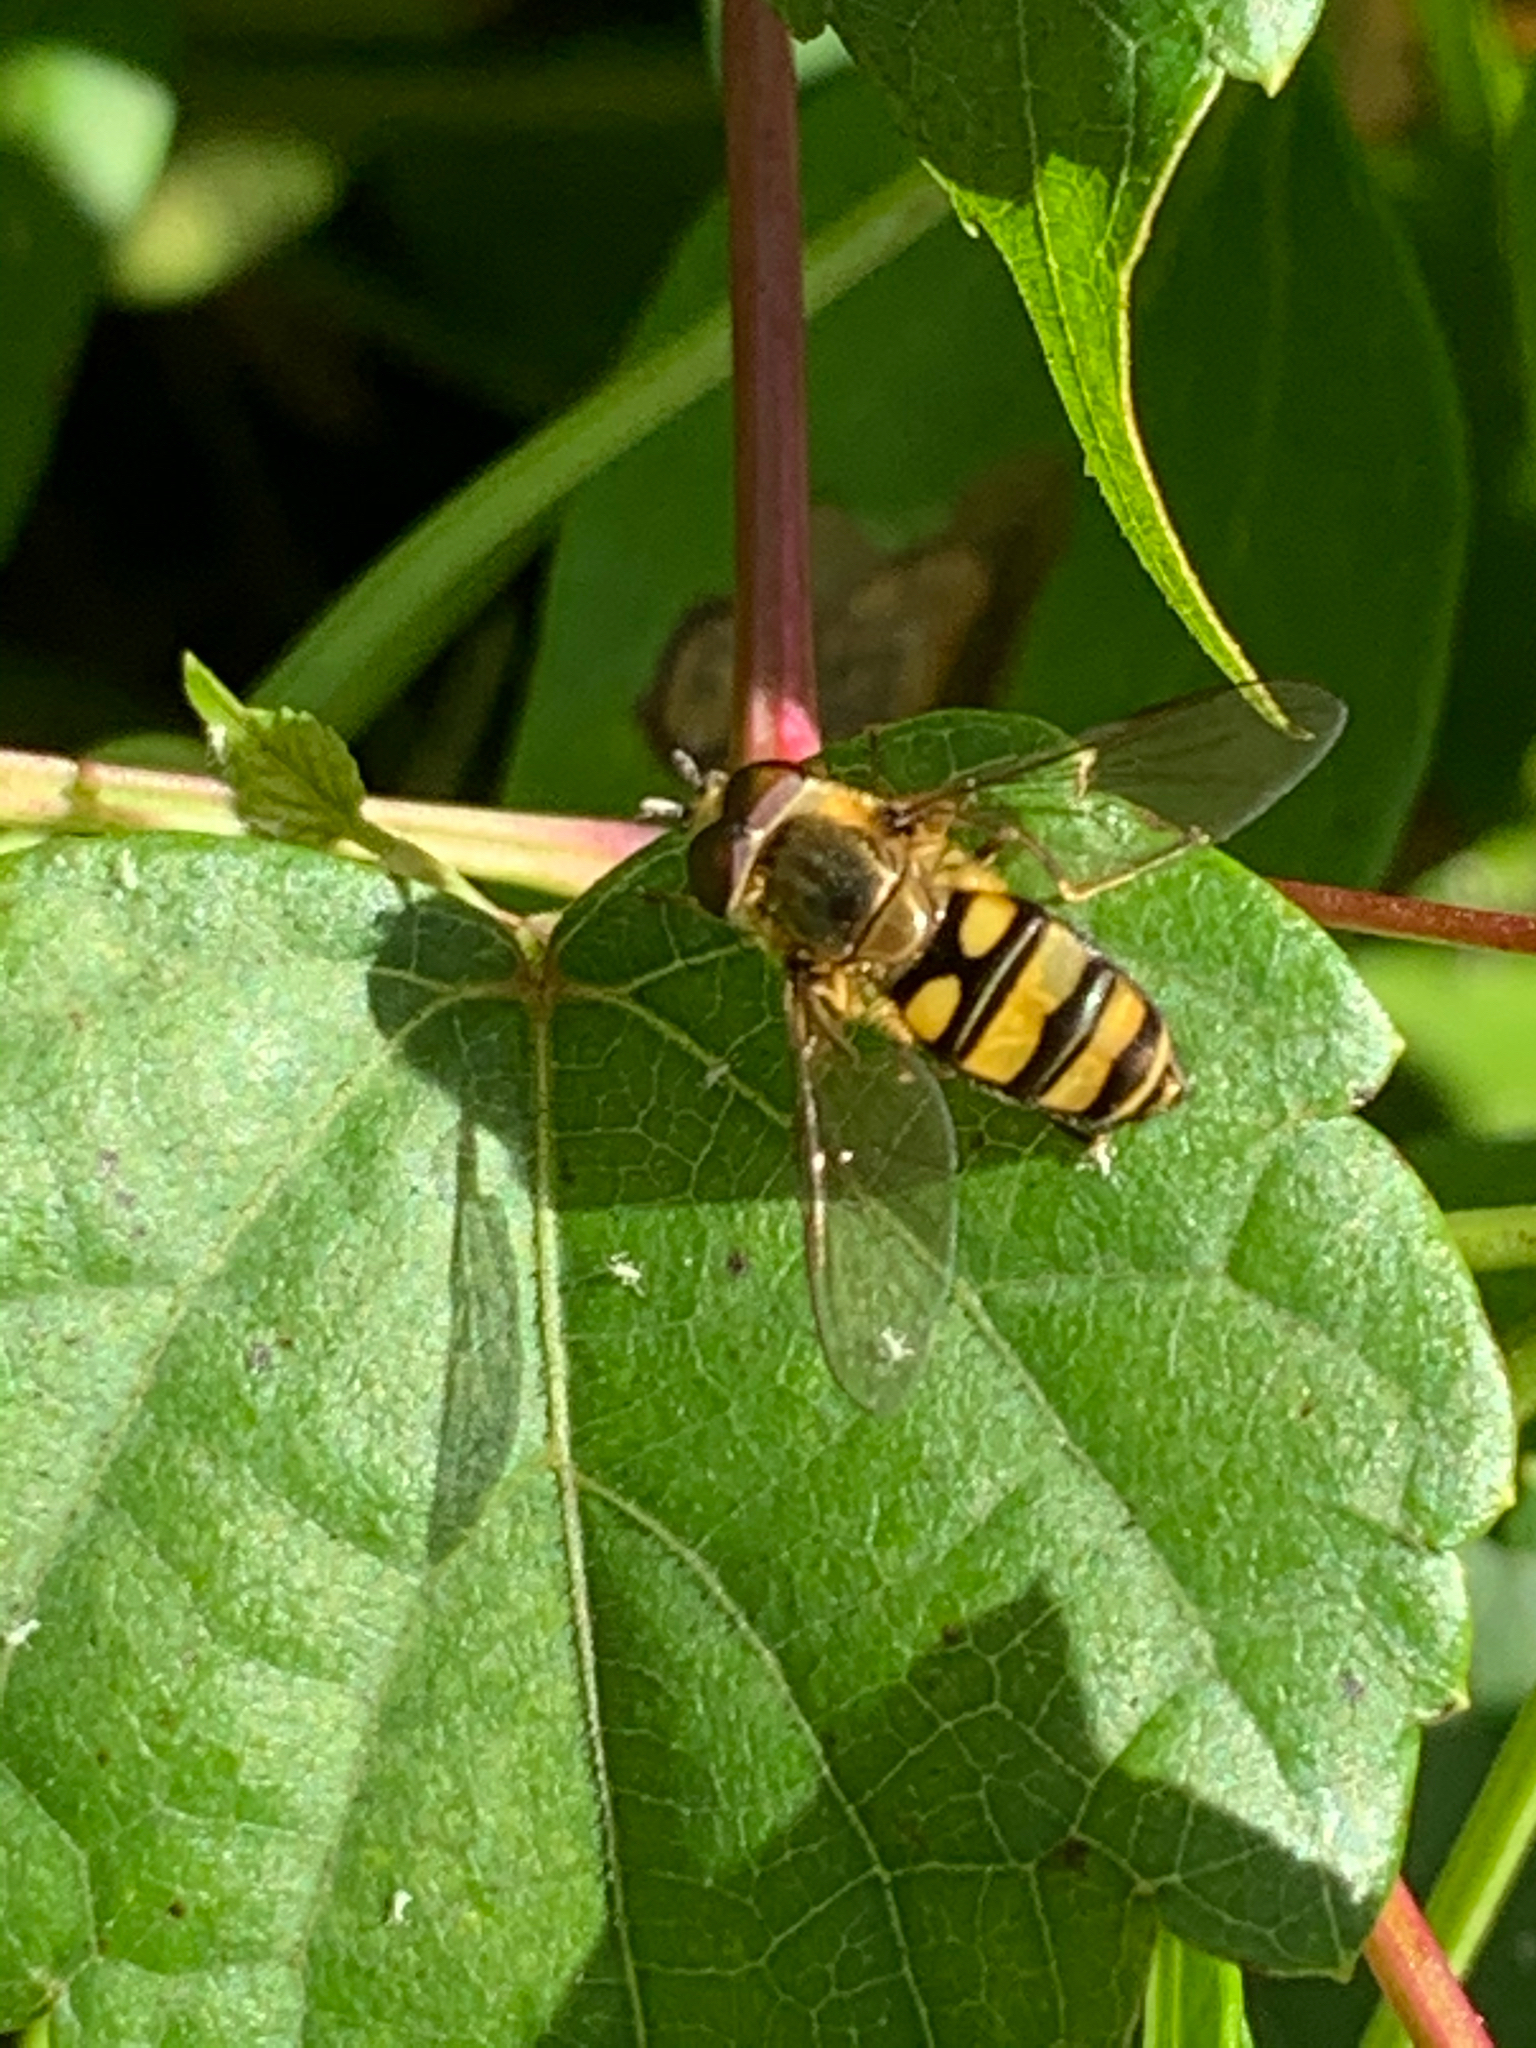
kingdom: Animalia
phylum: Arthropoda
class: Insecta
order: Diptera
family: Syrphidae
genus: Eupeodes
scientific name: Eupeodes
